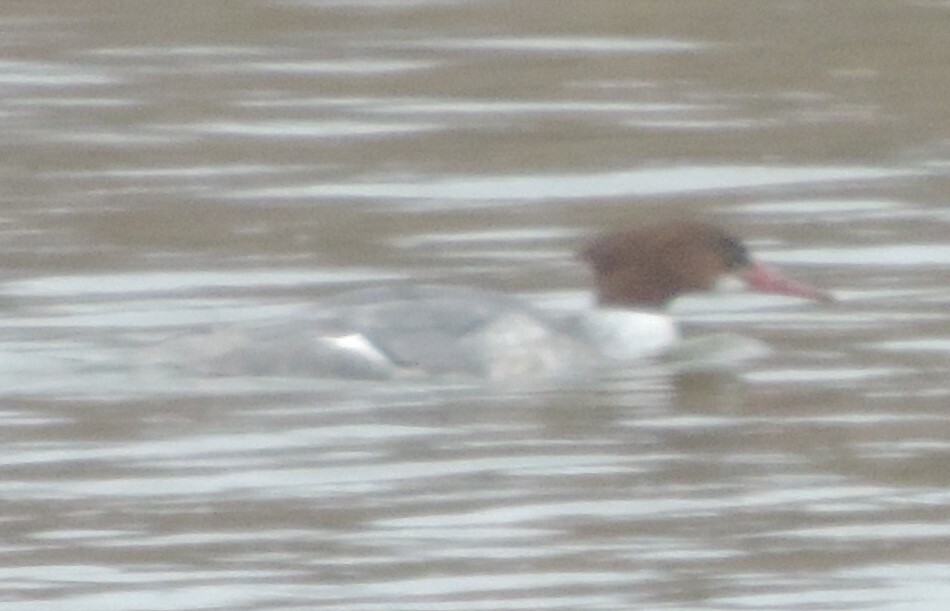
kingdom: Animalia
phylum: Chordata
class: Aves
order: Anseriformes
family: Anatidae
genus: Mergus
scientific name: Mergus merganser
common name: Common merganser
